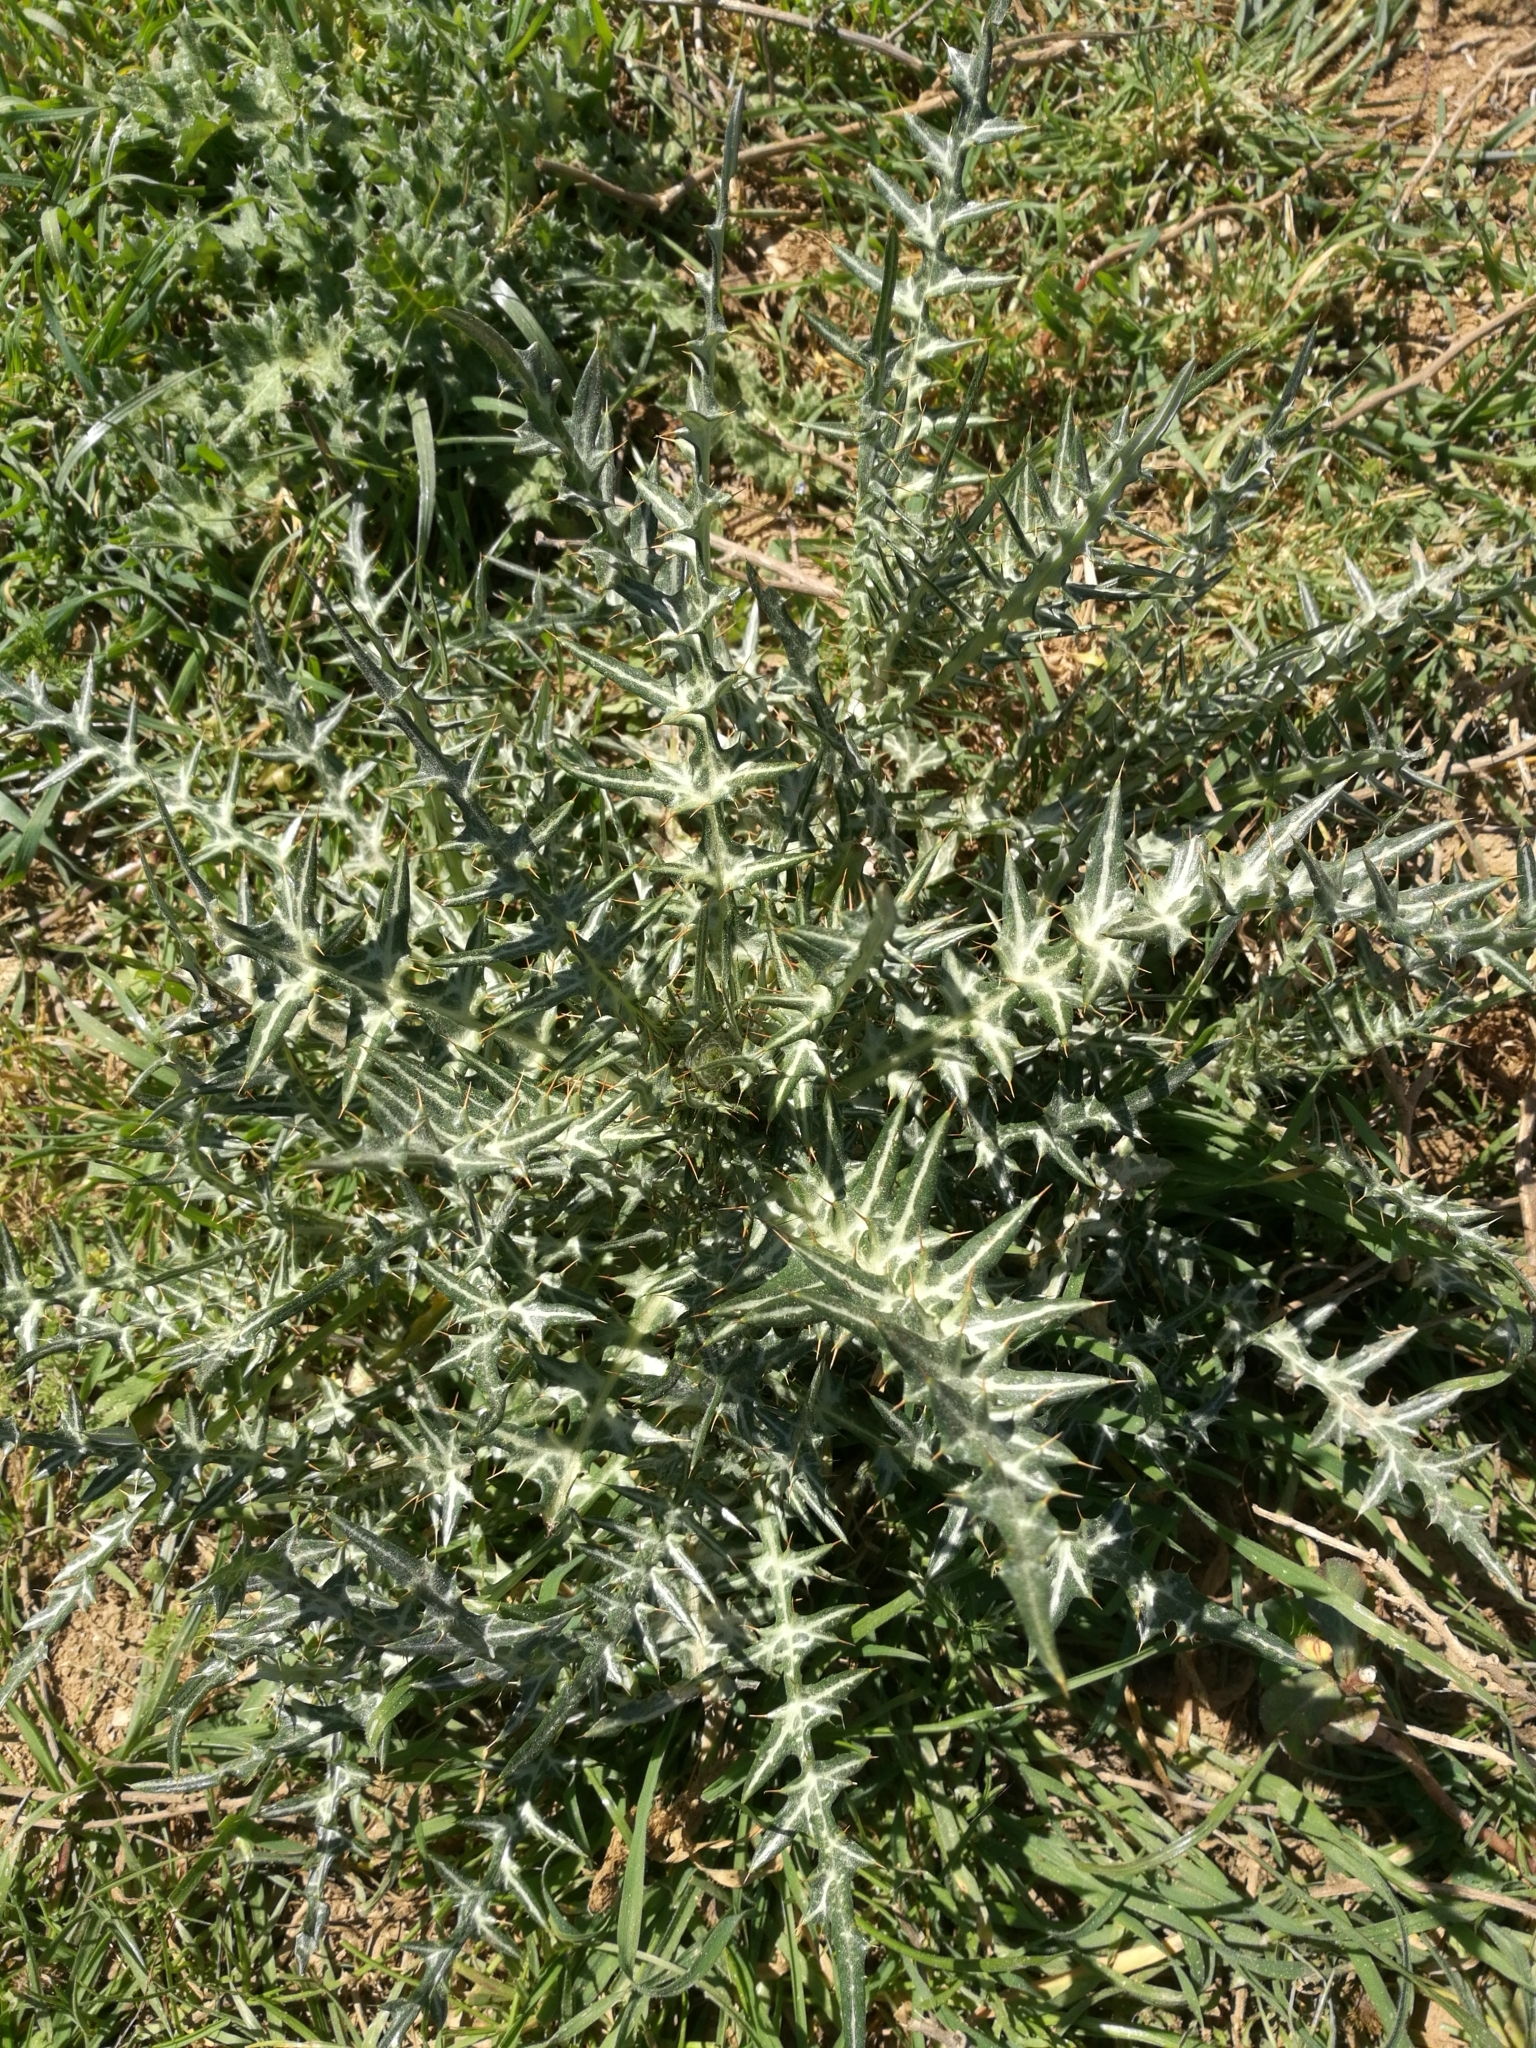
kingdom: Plantae
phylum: Tracheophyta
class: Magnoliopsida
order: Asterales
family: Asteraceae
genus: Galactites
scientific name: Galactites tomentosa
